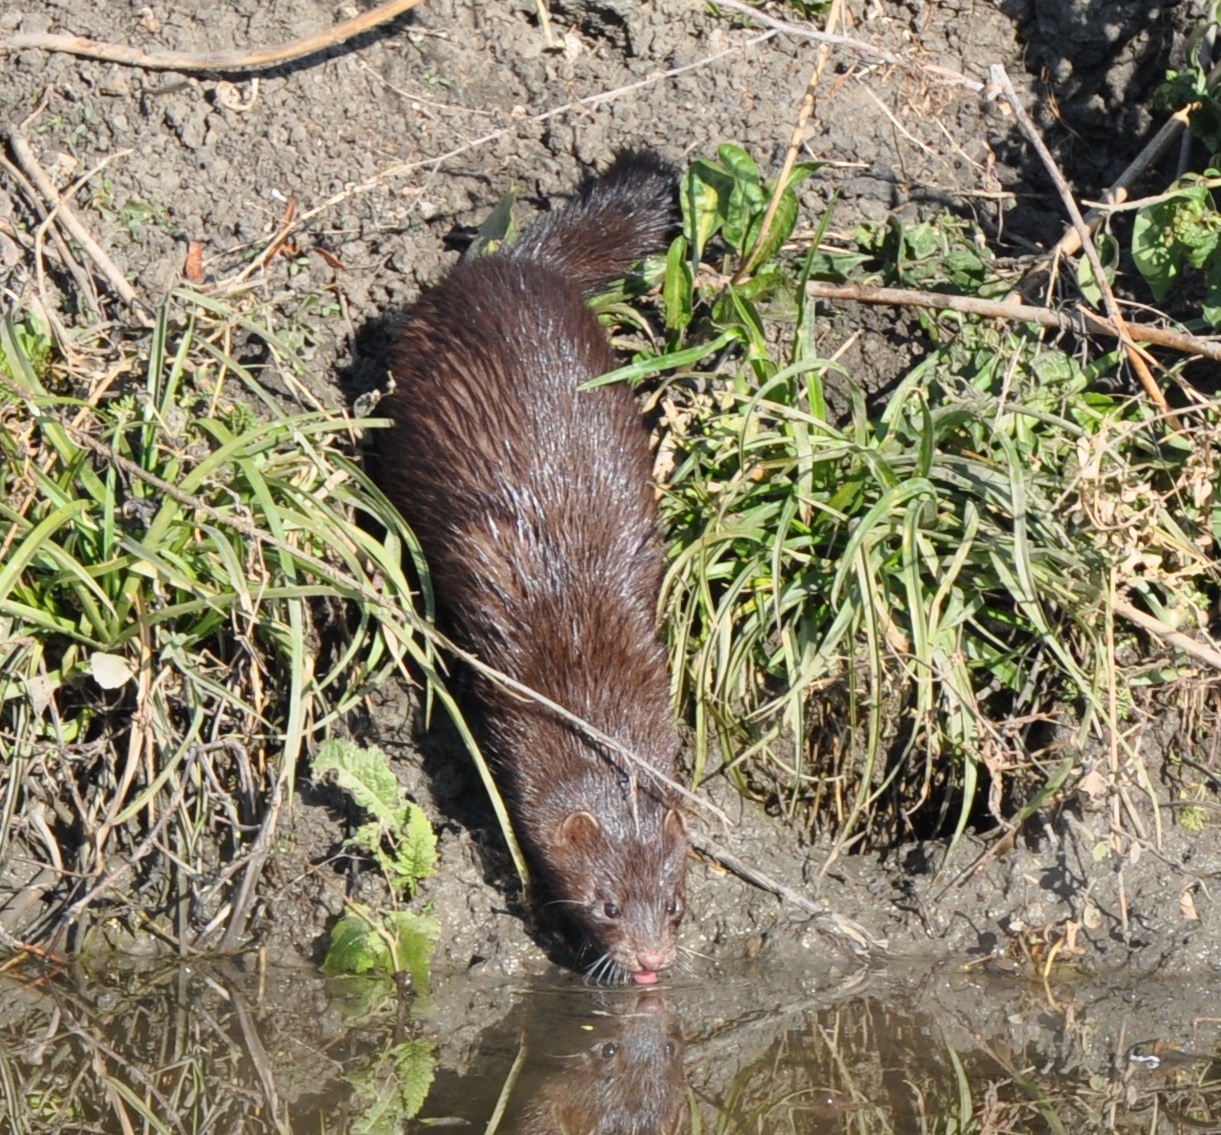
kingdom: Animalia
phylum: Chordata
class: Mammalia
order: Carnivora
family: Mustelidae
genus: Mustela
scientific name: Mustela
